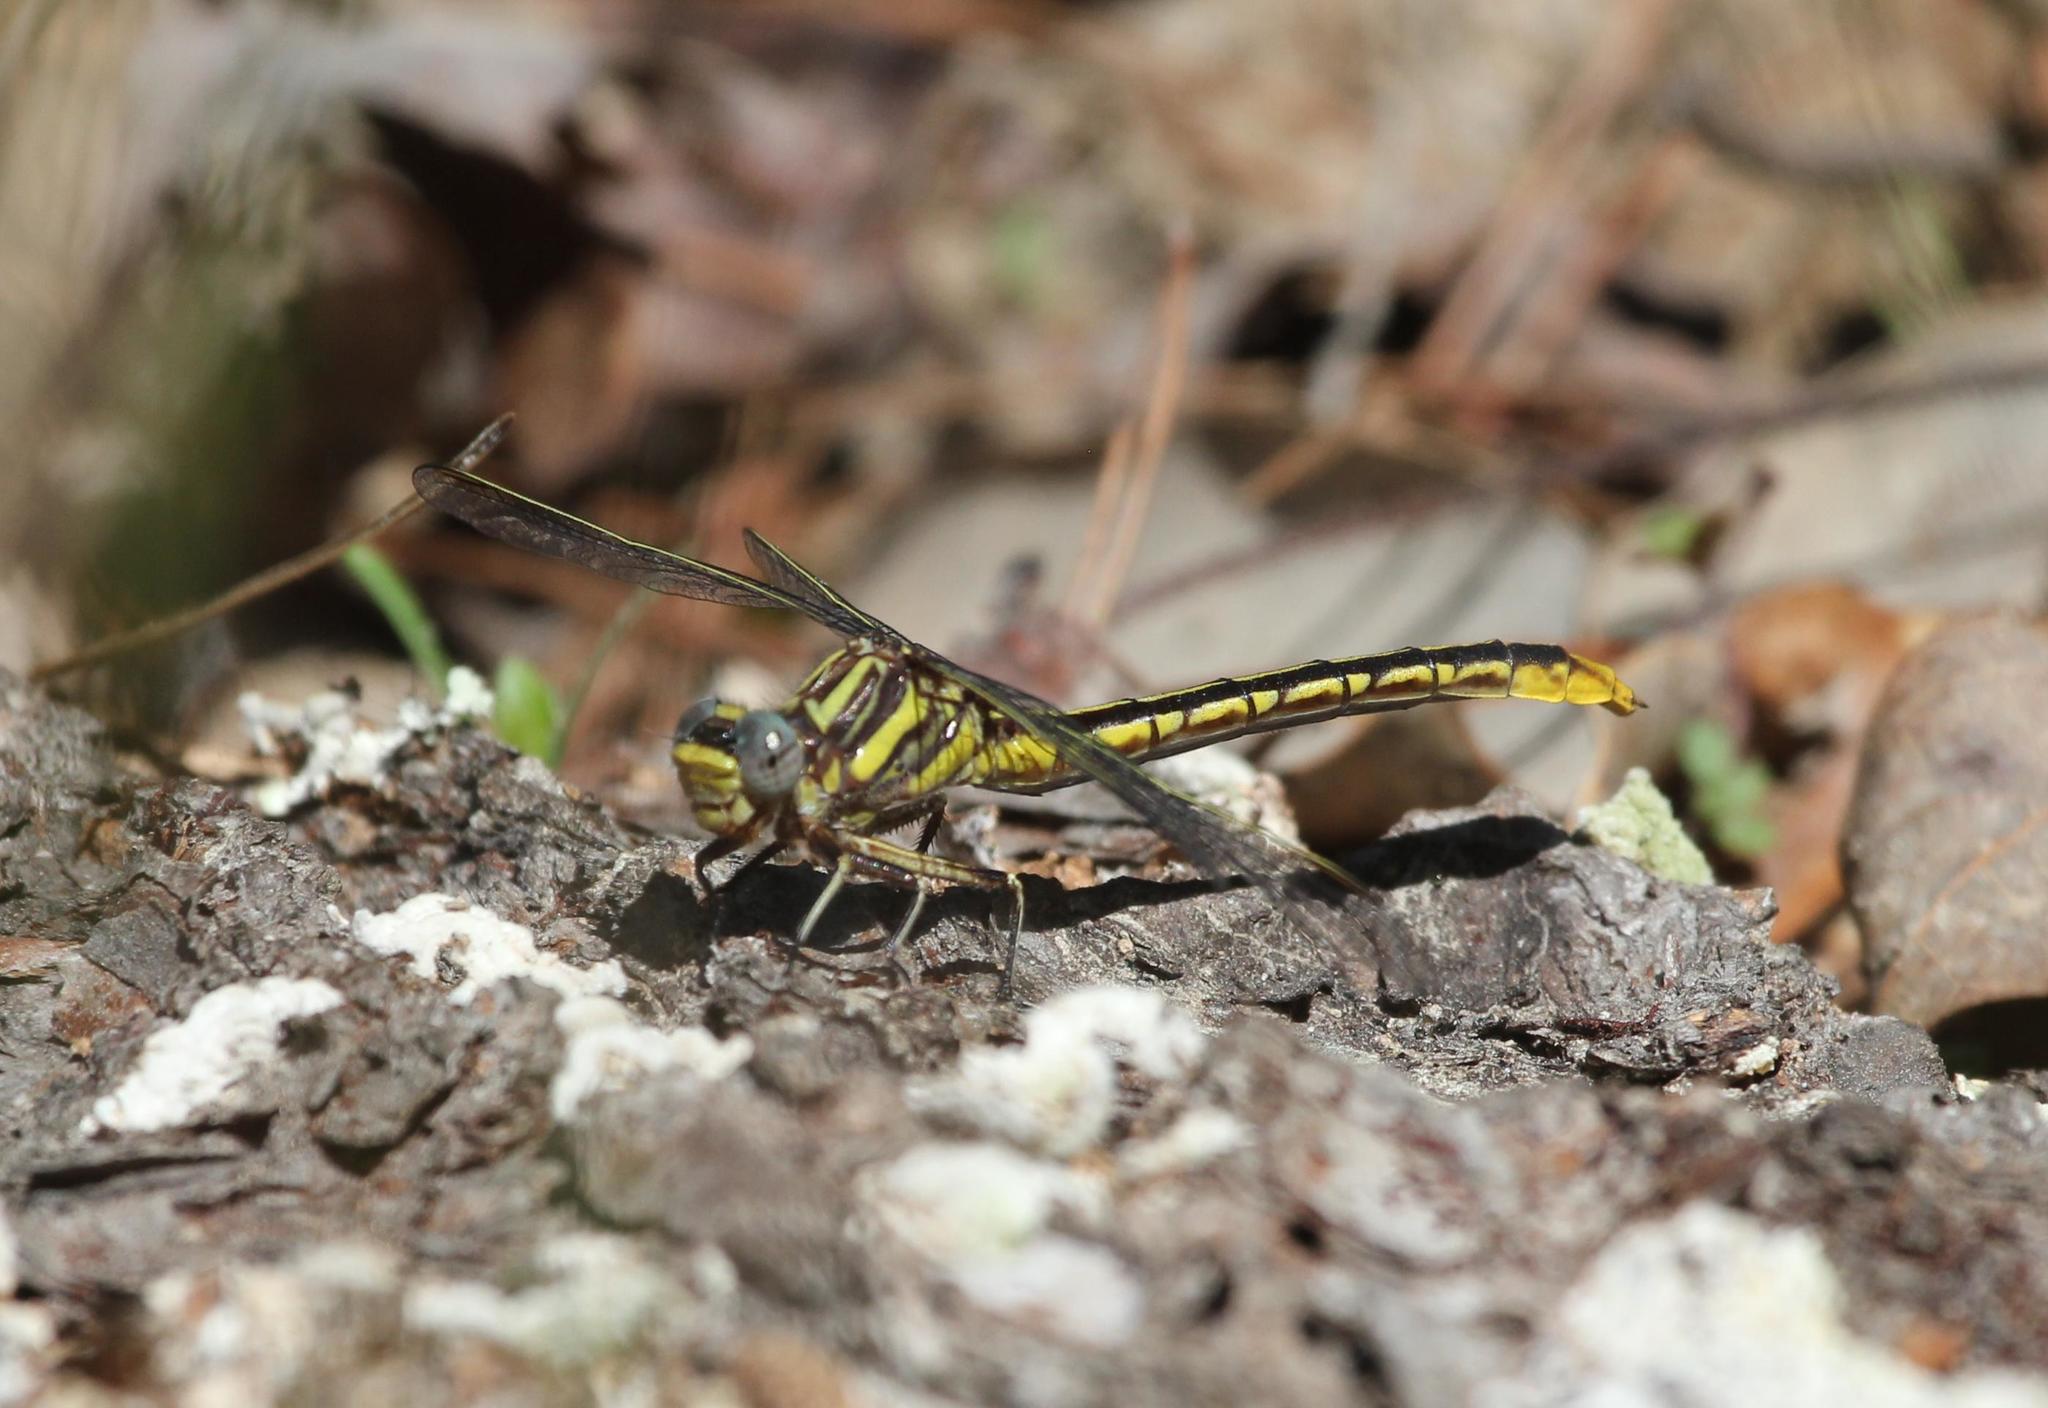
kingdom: Animalia
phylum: Arthropoda
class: Insecta
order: Odonata
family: Gomphidae
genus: Phanogomphus
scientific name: Phanogomphus exilis
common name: Lancet clubtail
